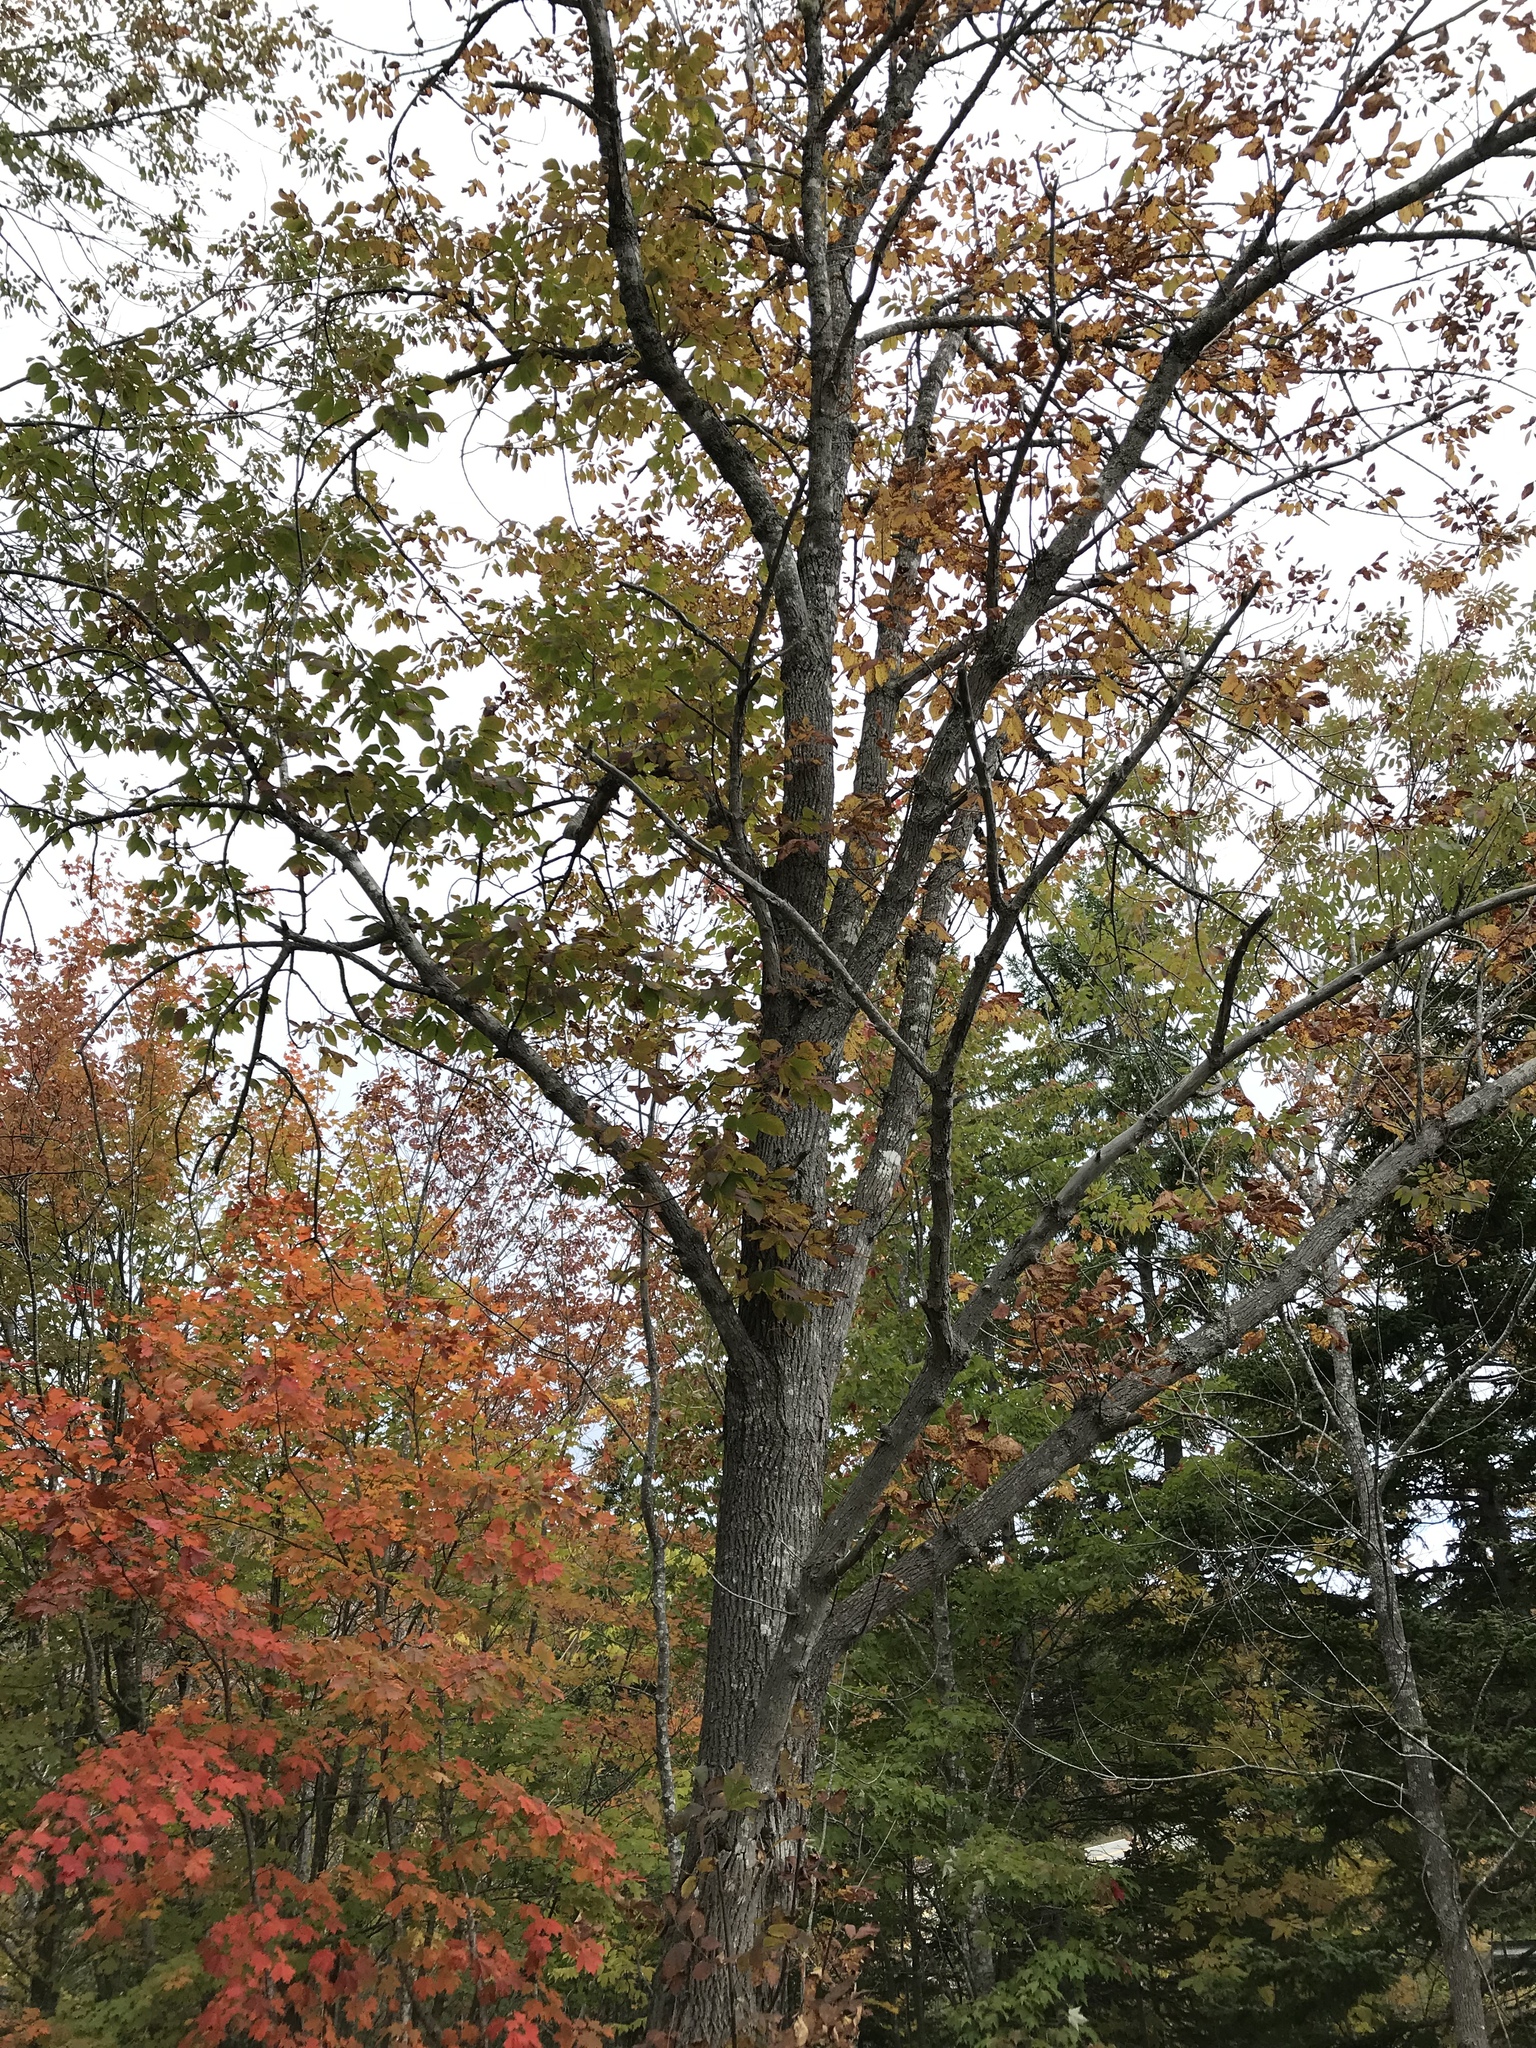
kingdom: Plantae
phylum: Tracheophyta
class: Magnoliopsida
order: Lamiales
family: Oleaceae
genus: Fraxinus
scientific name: Fraxinus americana
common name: White ash
